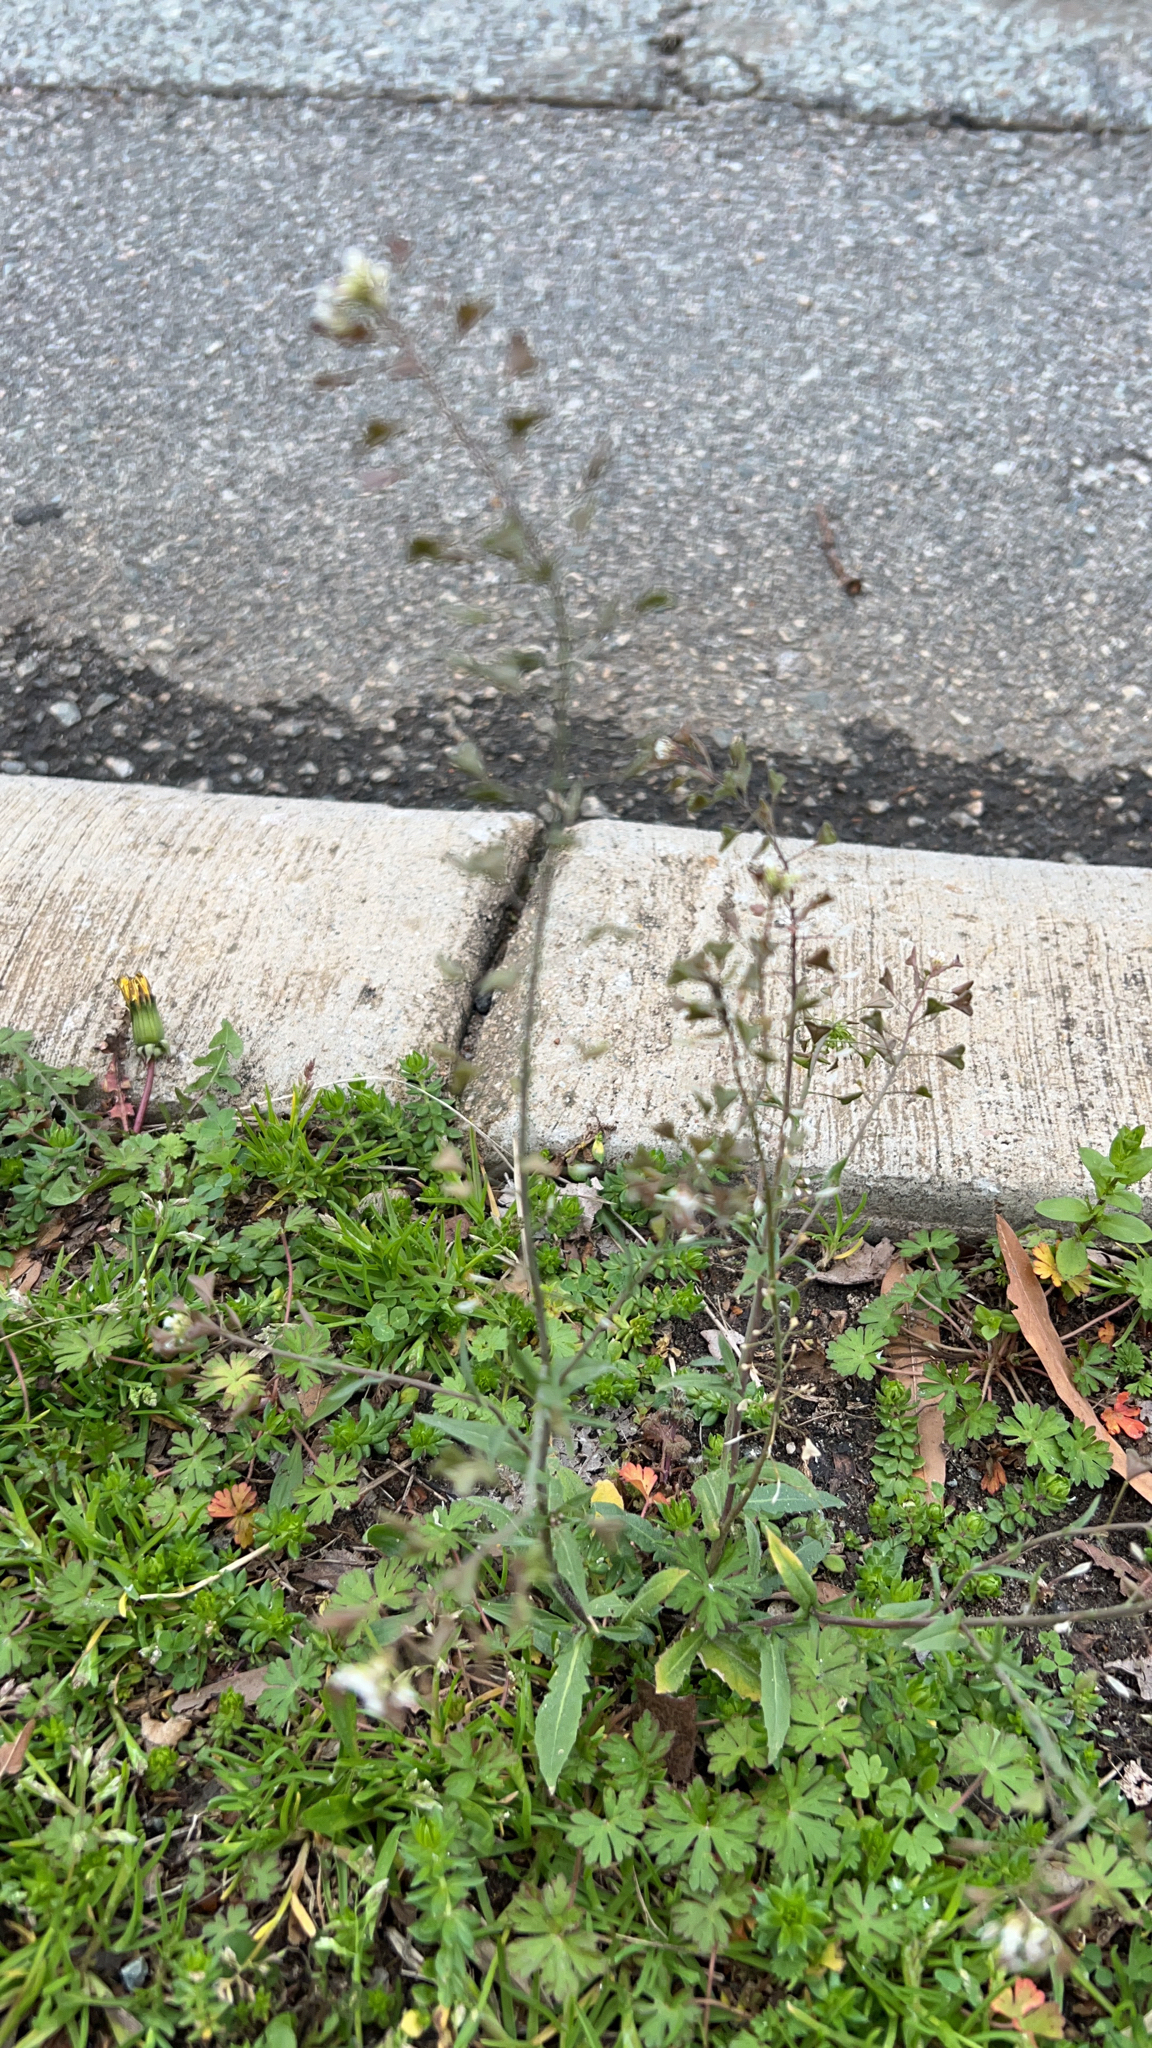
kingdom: Plantae
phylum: Tracheophyta
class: Magnoliopsida
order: Brassicales
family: Brassicaceae
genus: Capsella
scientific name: Capsella bursa-pastoris
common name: Shepherd's purse
